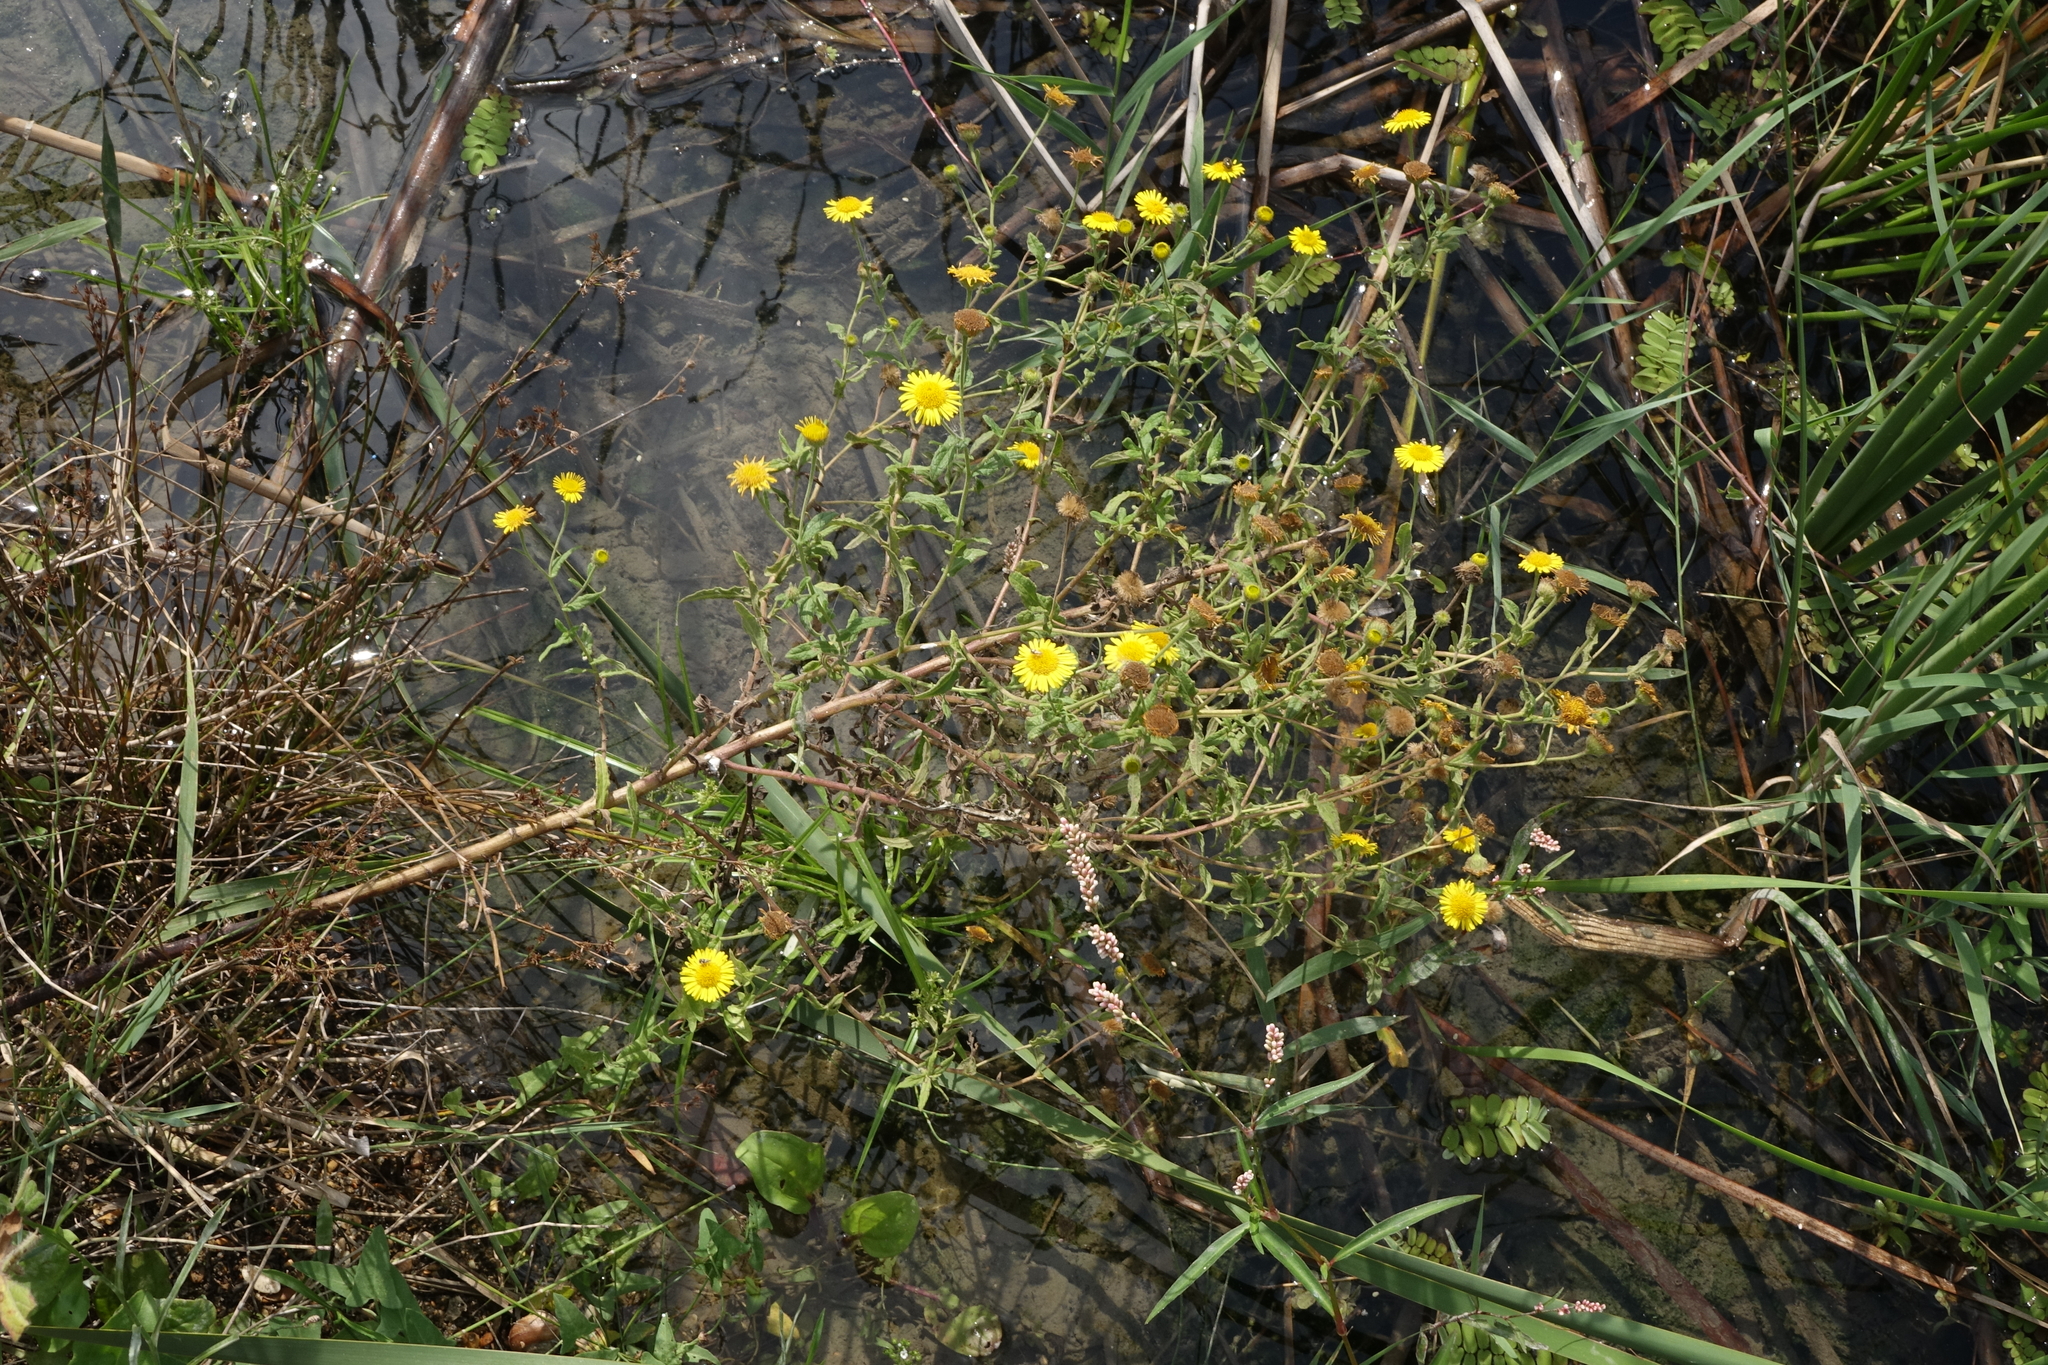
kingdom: Plantae
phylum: Tracheophyta
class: Magnoliopsida
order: Asterales
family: Asteraceae
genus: Pulicaria
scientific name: Pulicaria dysenterica
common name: Common fleabane
